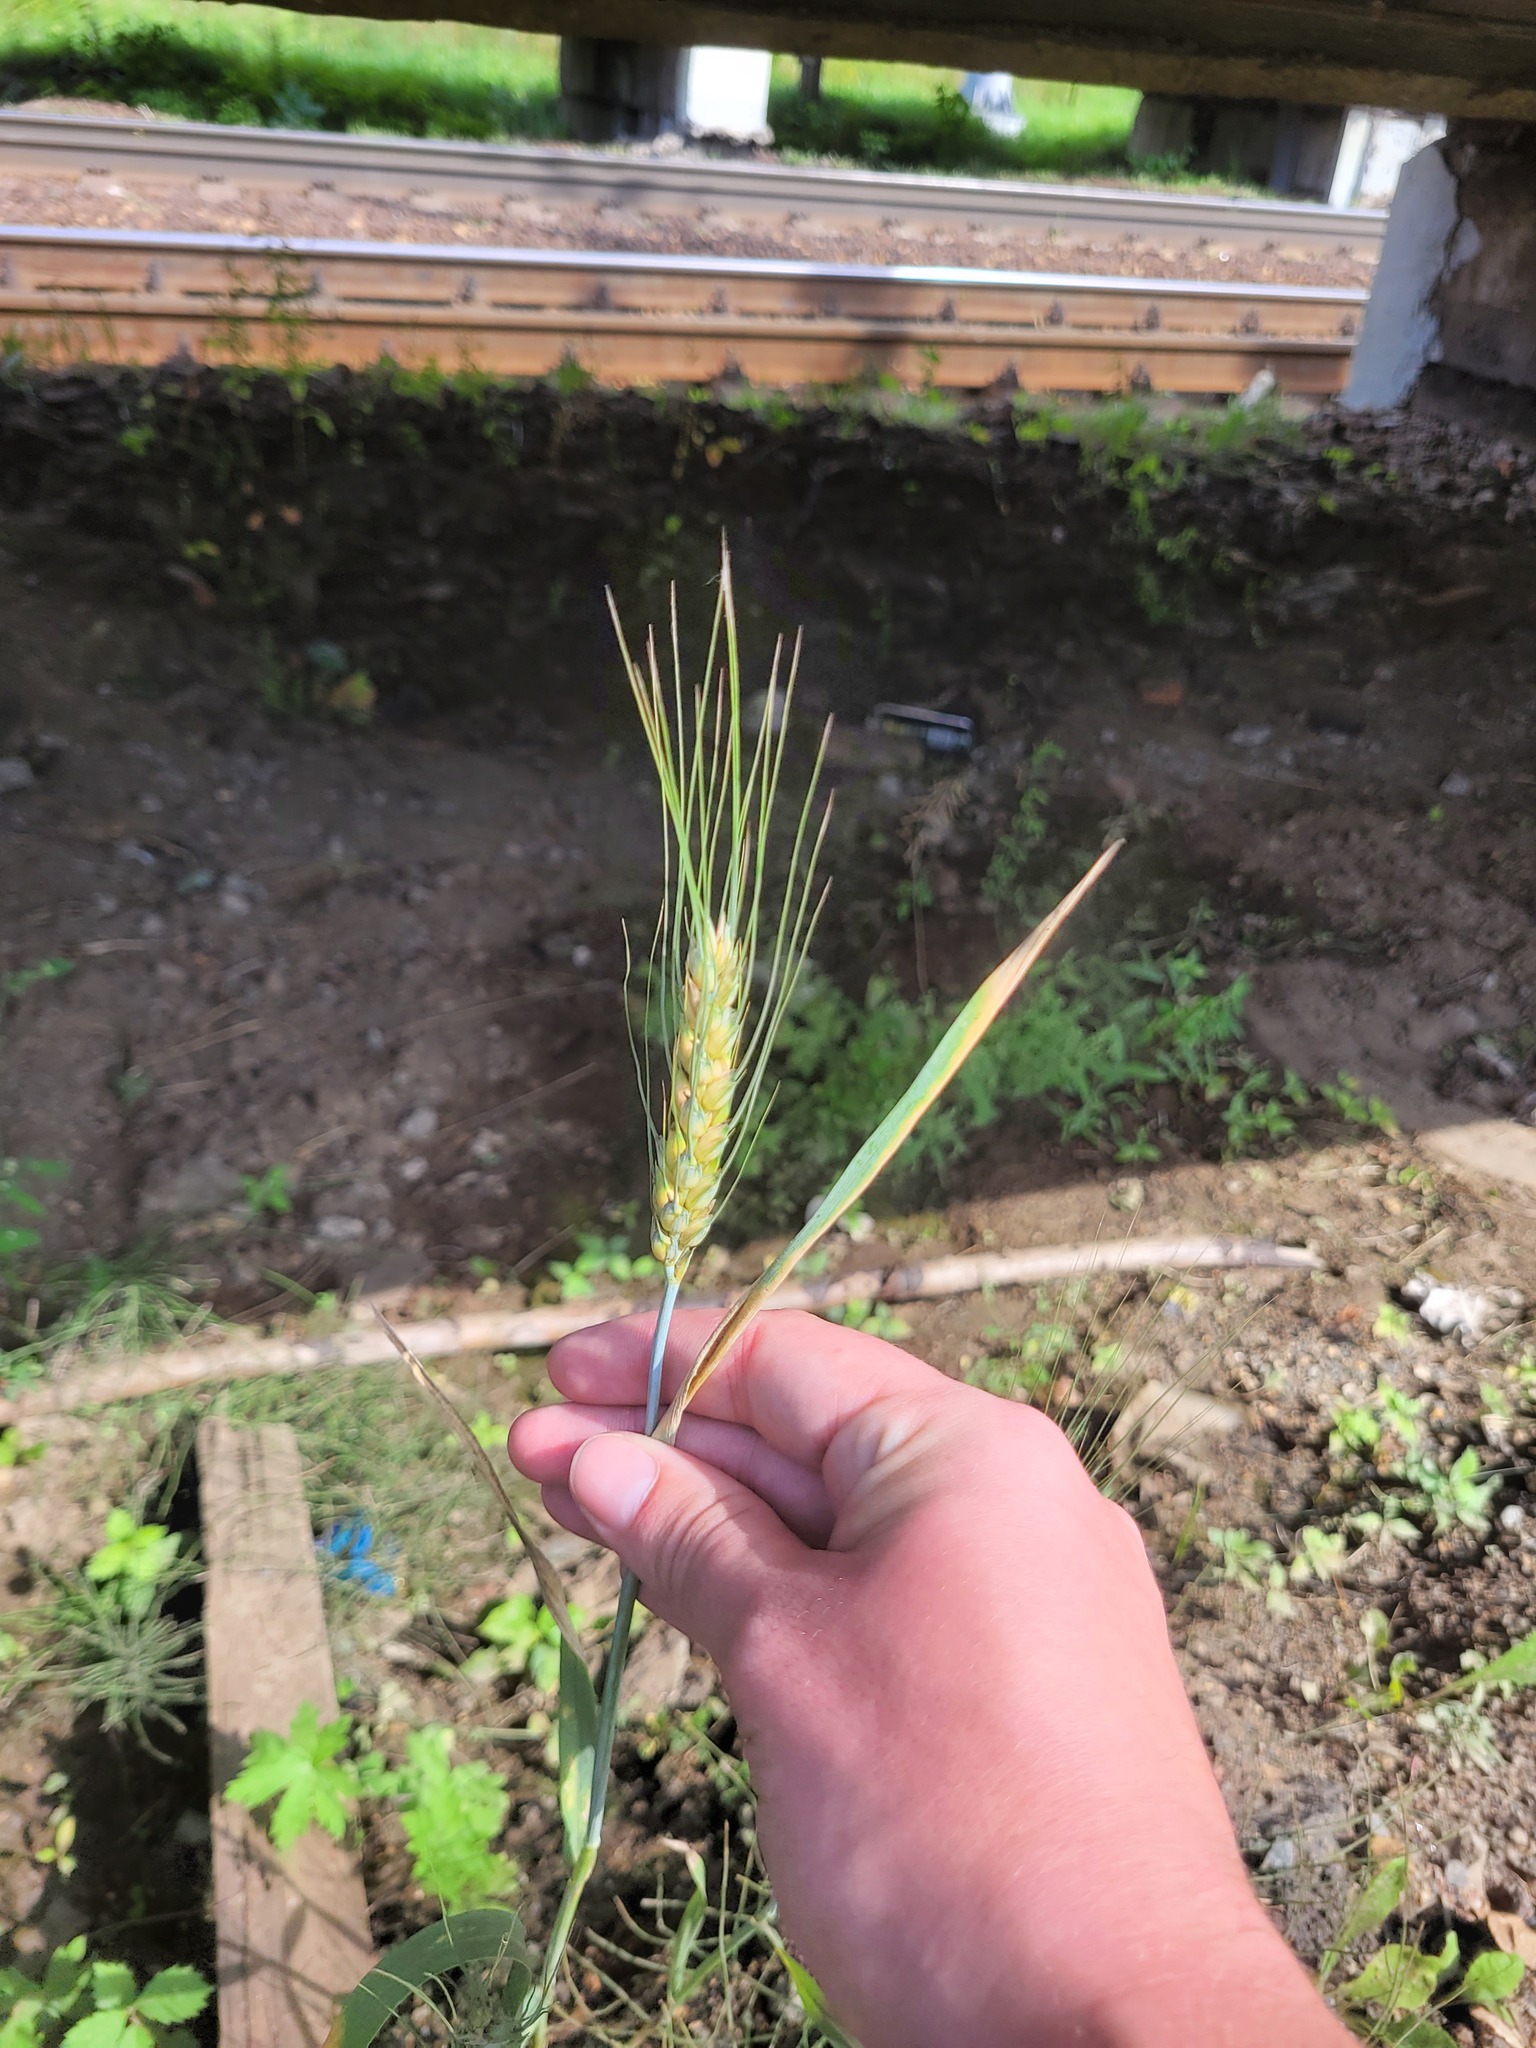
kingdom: Plantae
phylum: Tracheophyta
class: Liliopsida
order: Poales
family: Poaceae
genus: Triticum
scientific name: Triticum aestivum
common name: Common wheat
